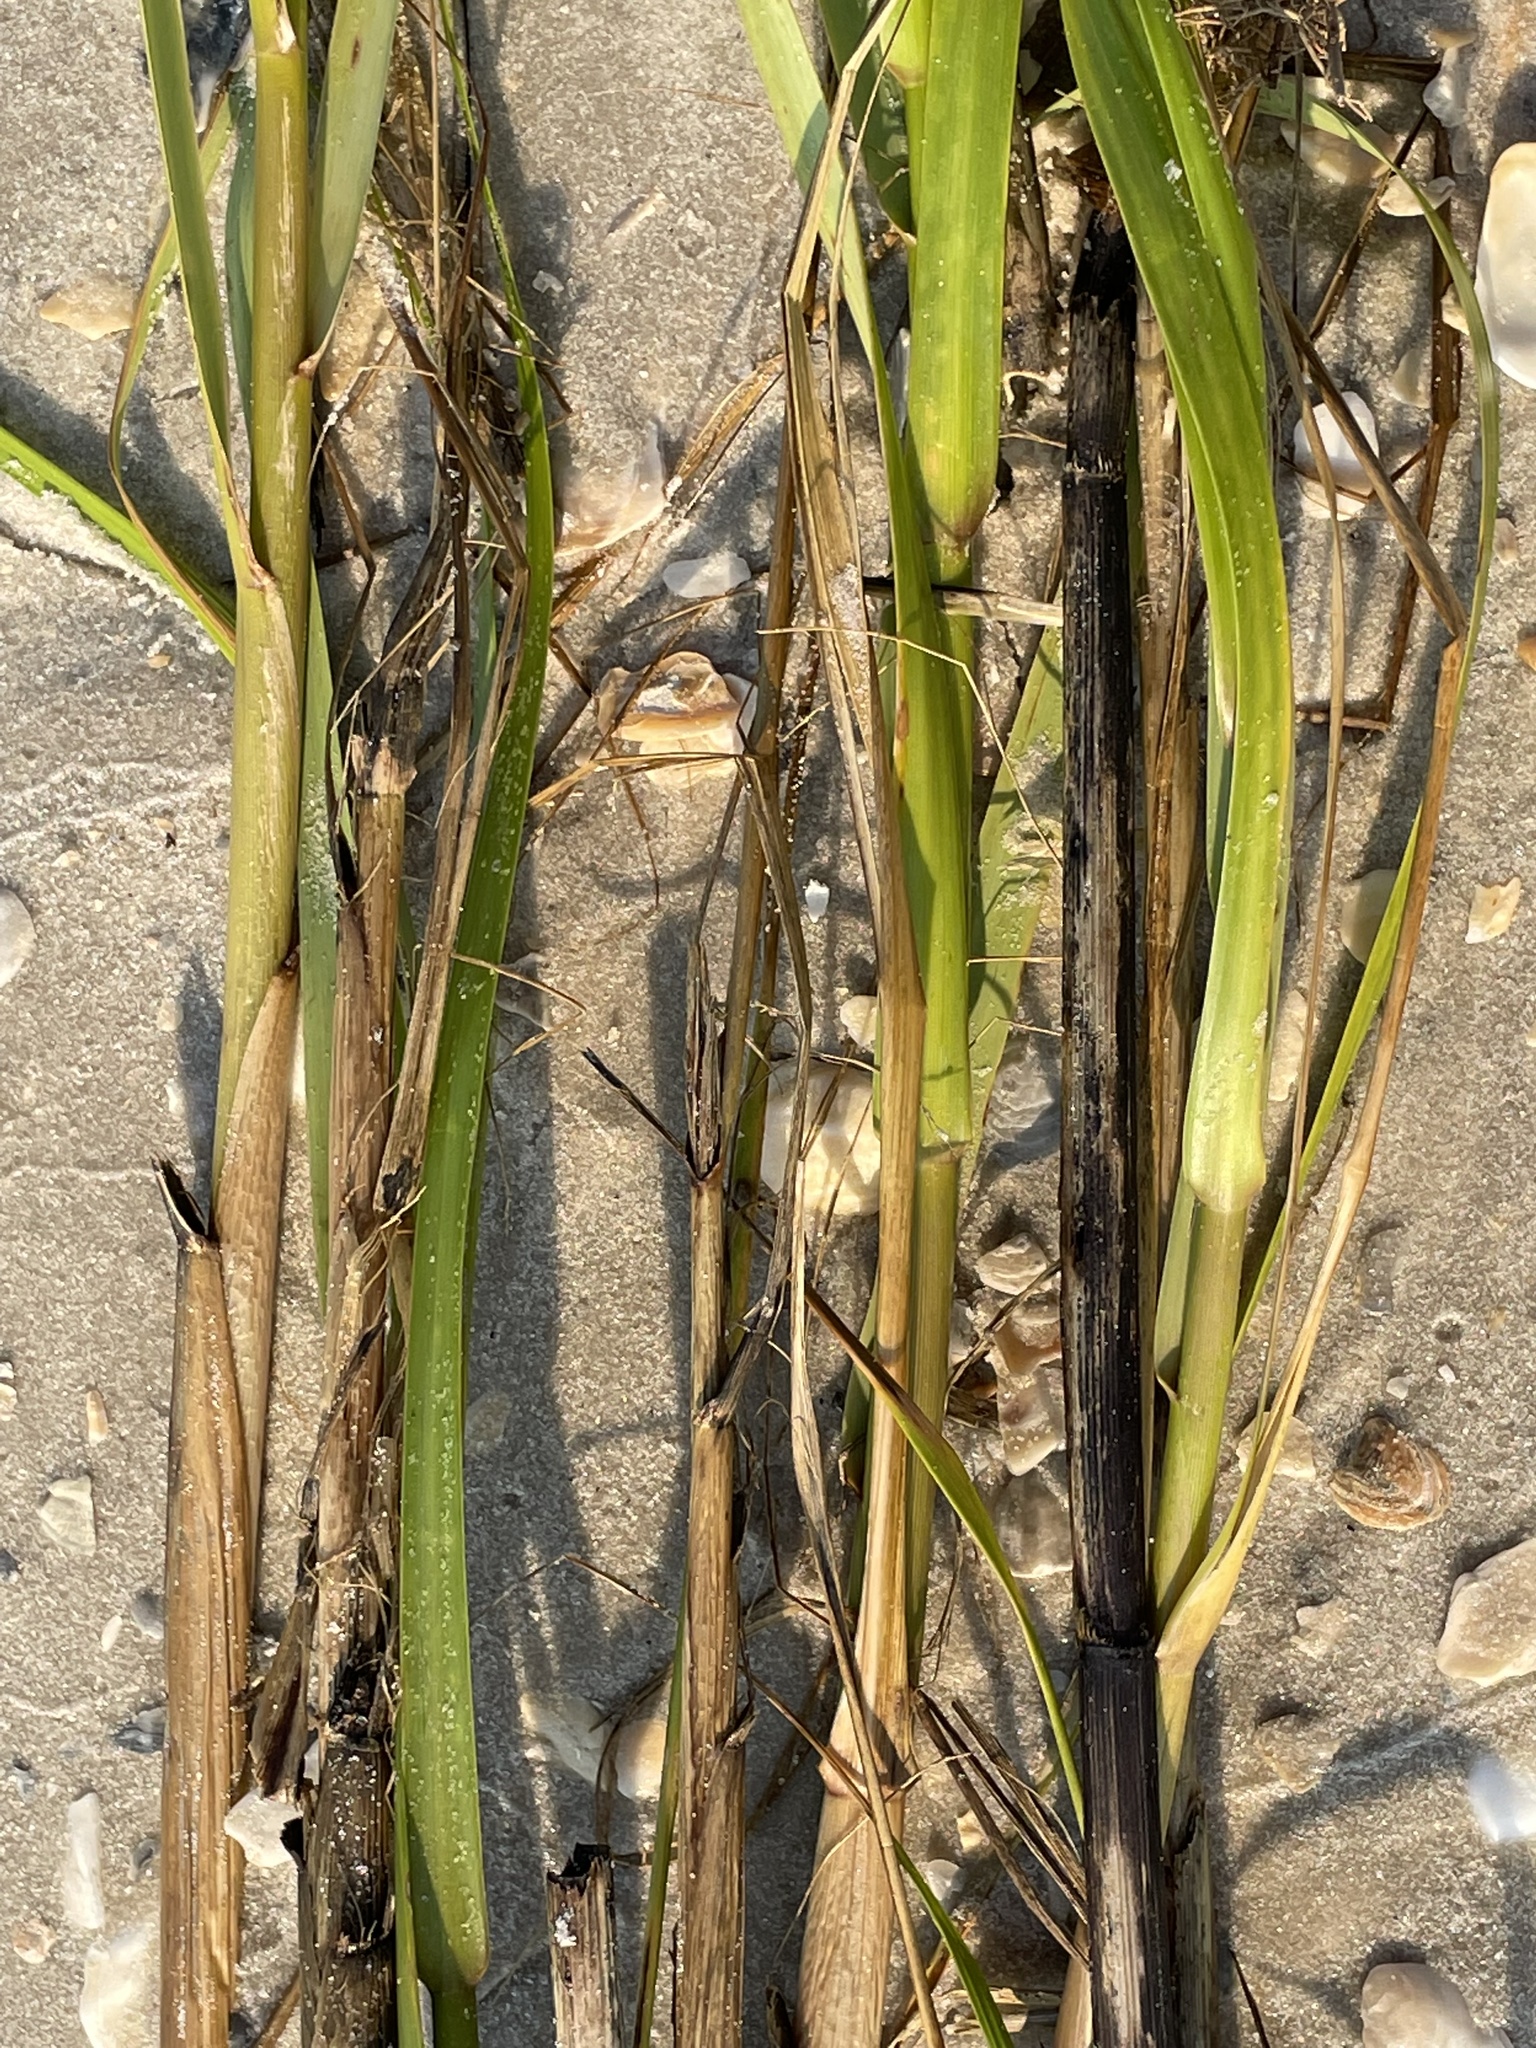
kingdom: Plantae
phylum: Tracheophyta
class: Liliopsida
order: Poales
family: Poaceae
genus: Sporobolus
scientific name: Sporobolus alterniflorus
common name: Atlantic cordgrass
